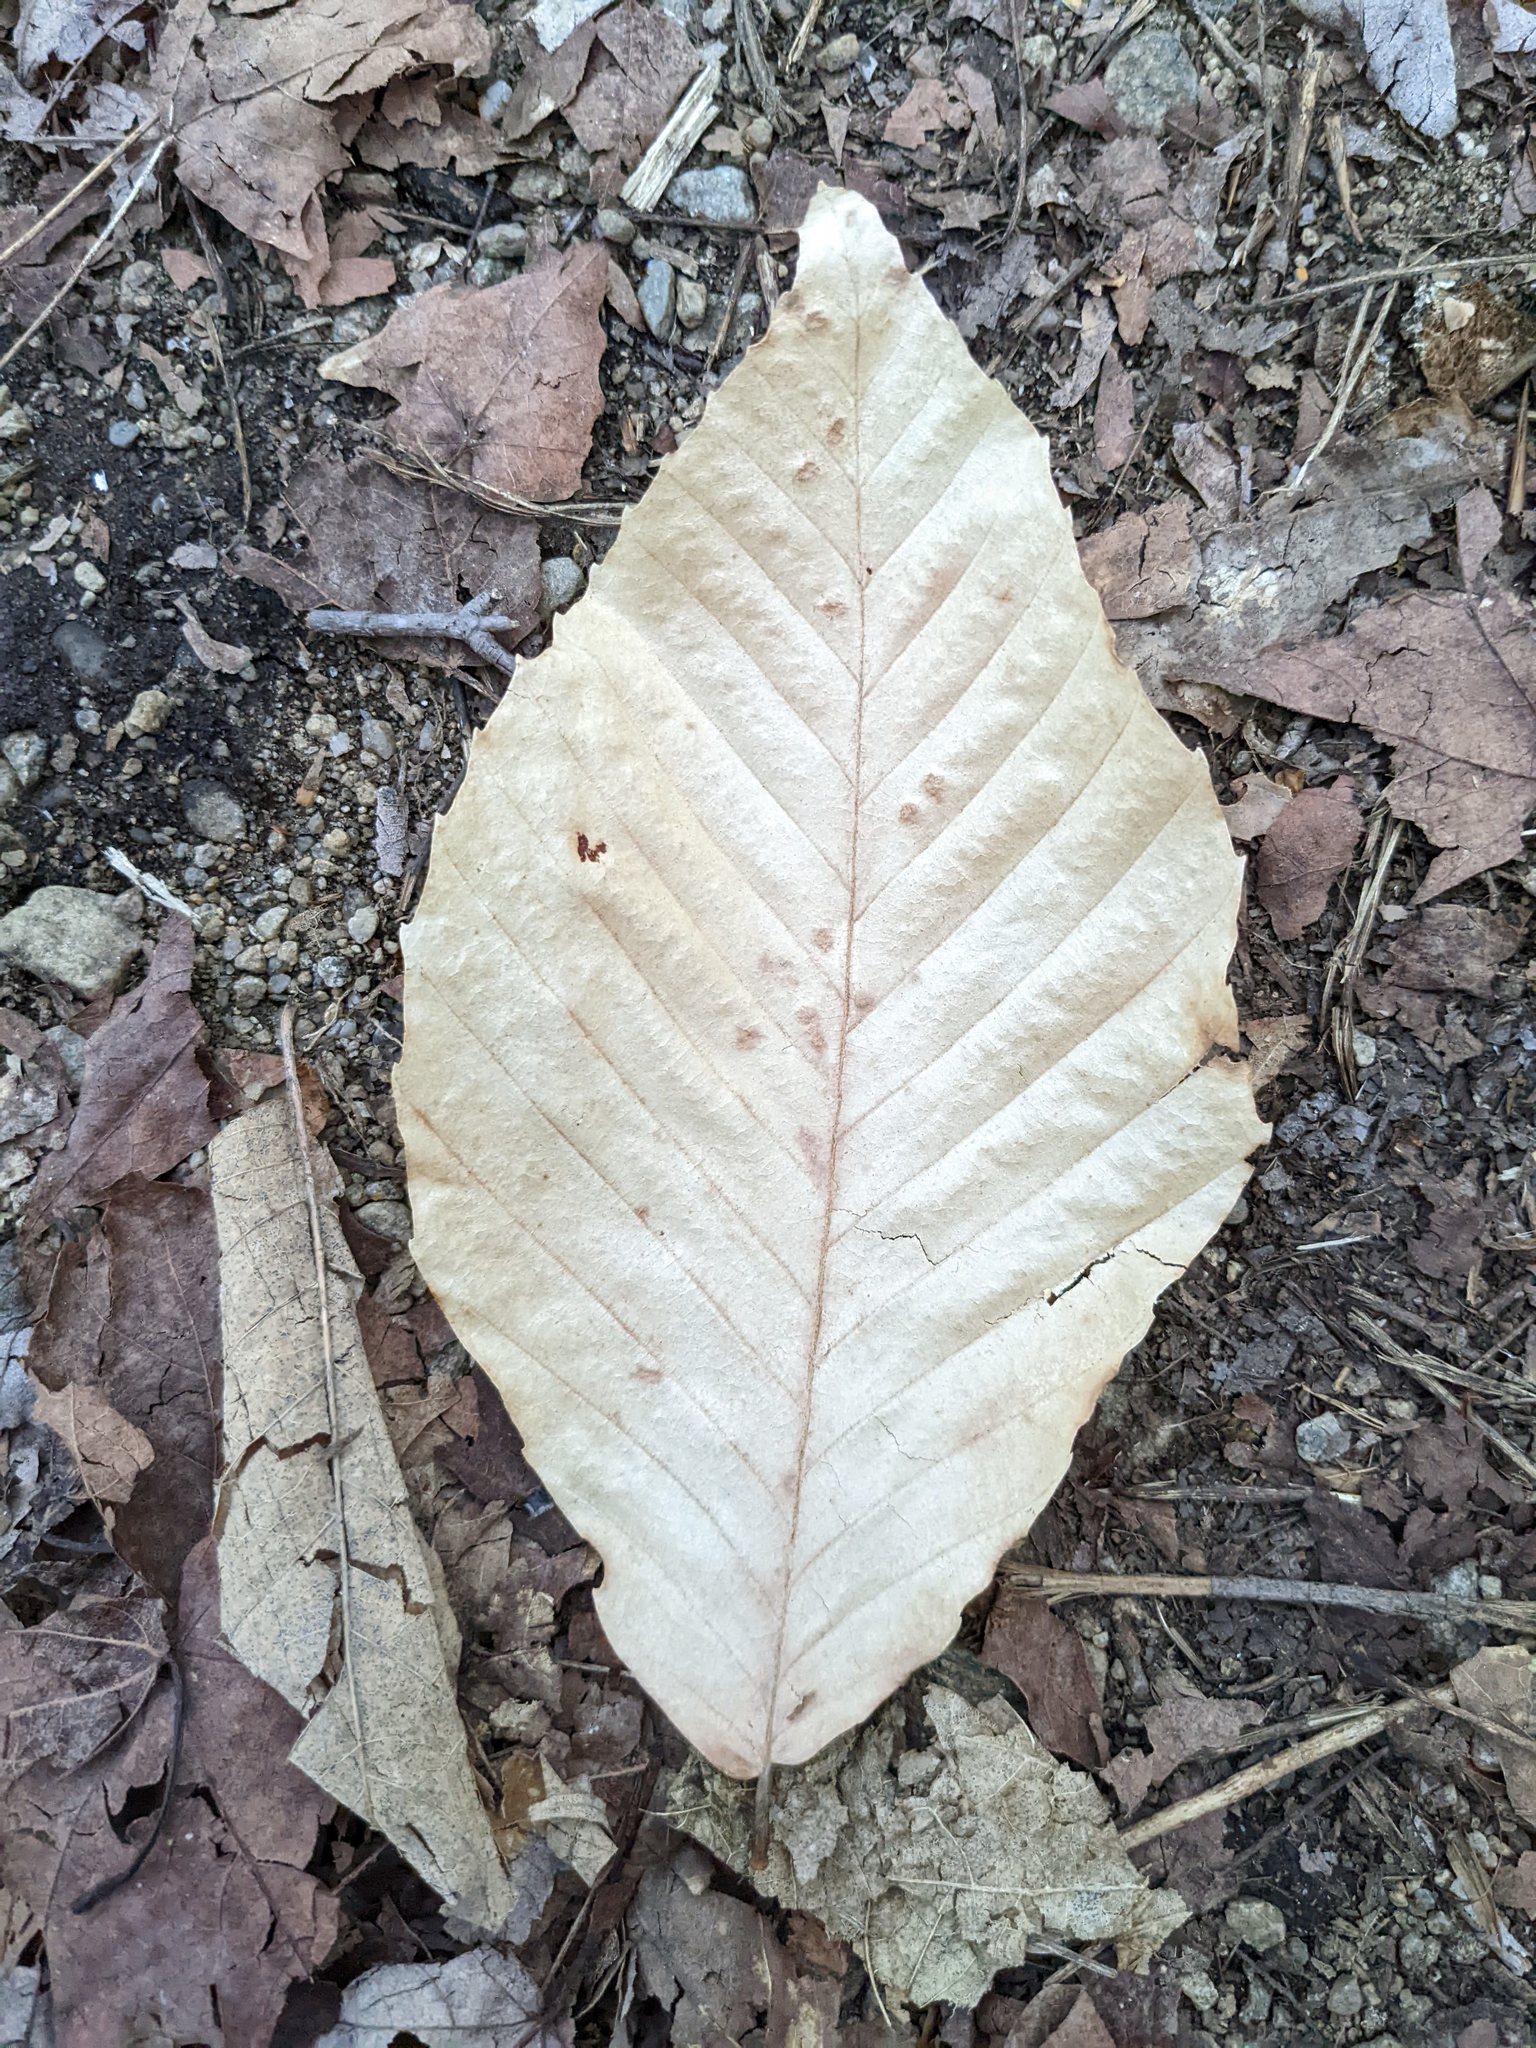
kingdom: Plantae
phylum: Tracheophyta
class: Magnoliopsida
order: Fagales
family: Fagaceae
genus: Fagus
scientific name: Fagus grandifolia
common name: American beech
